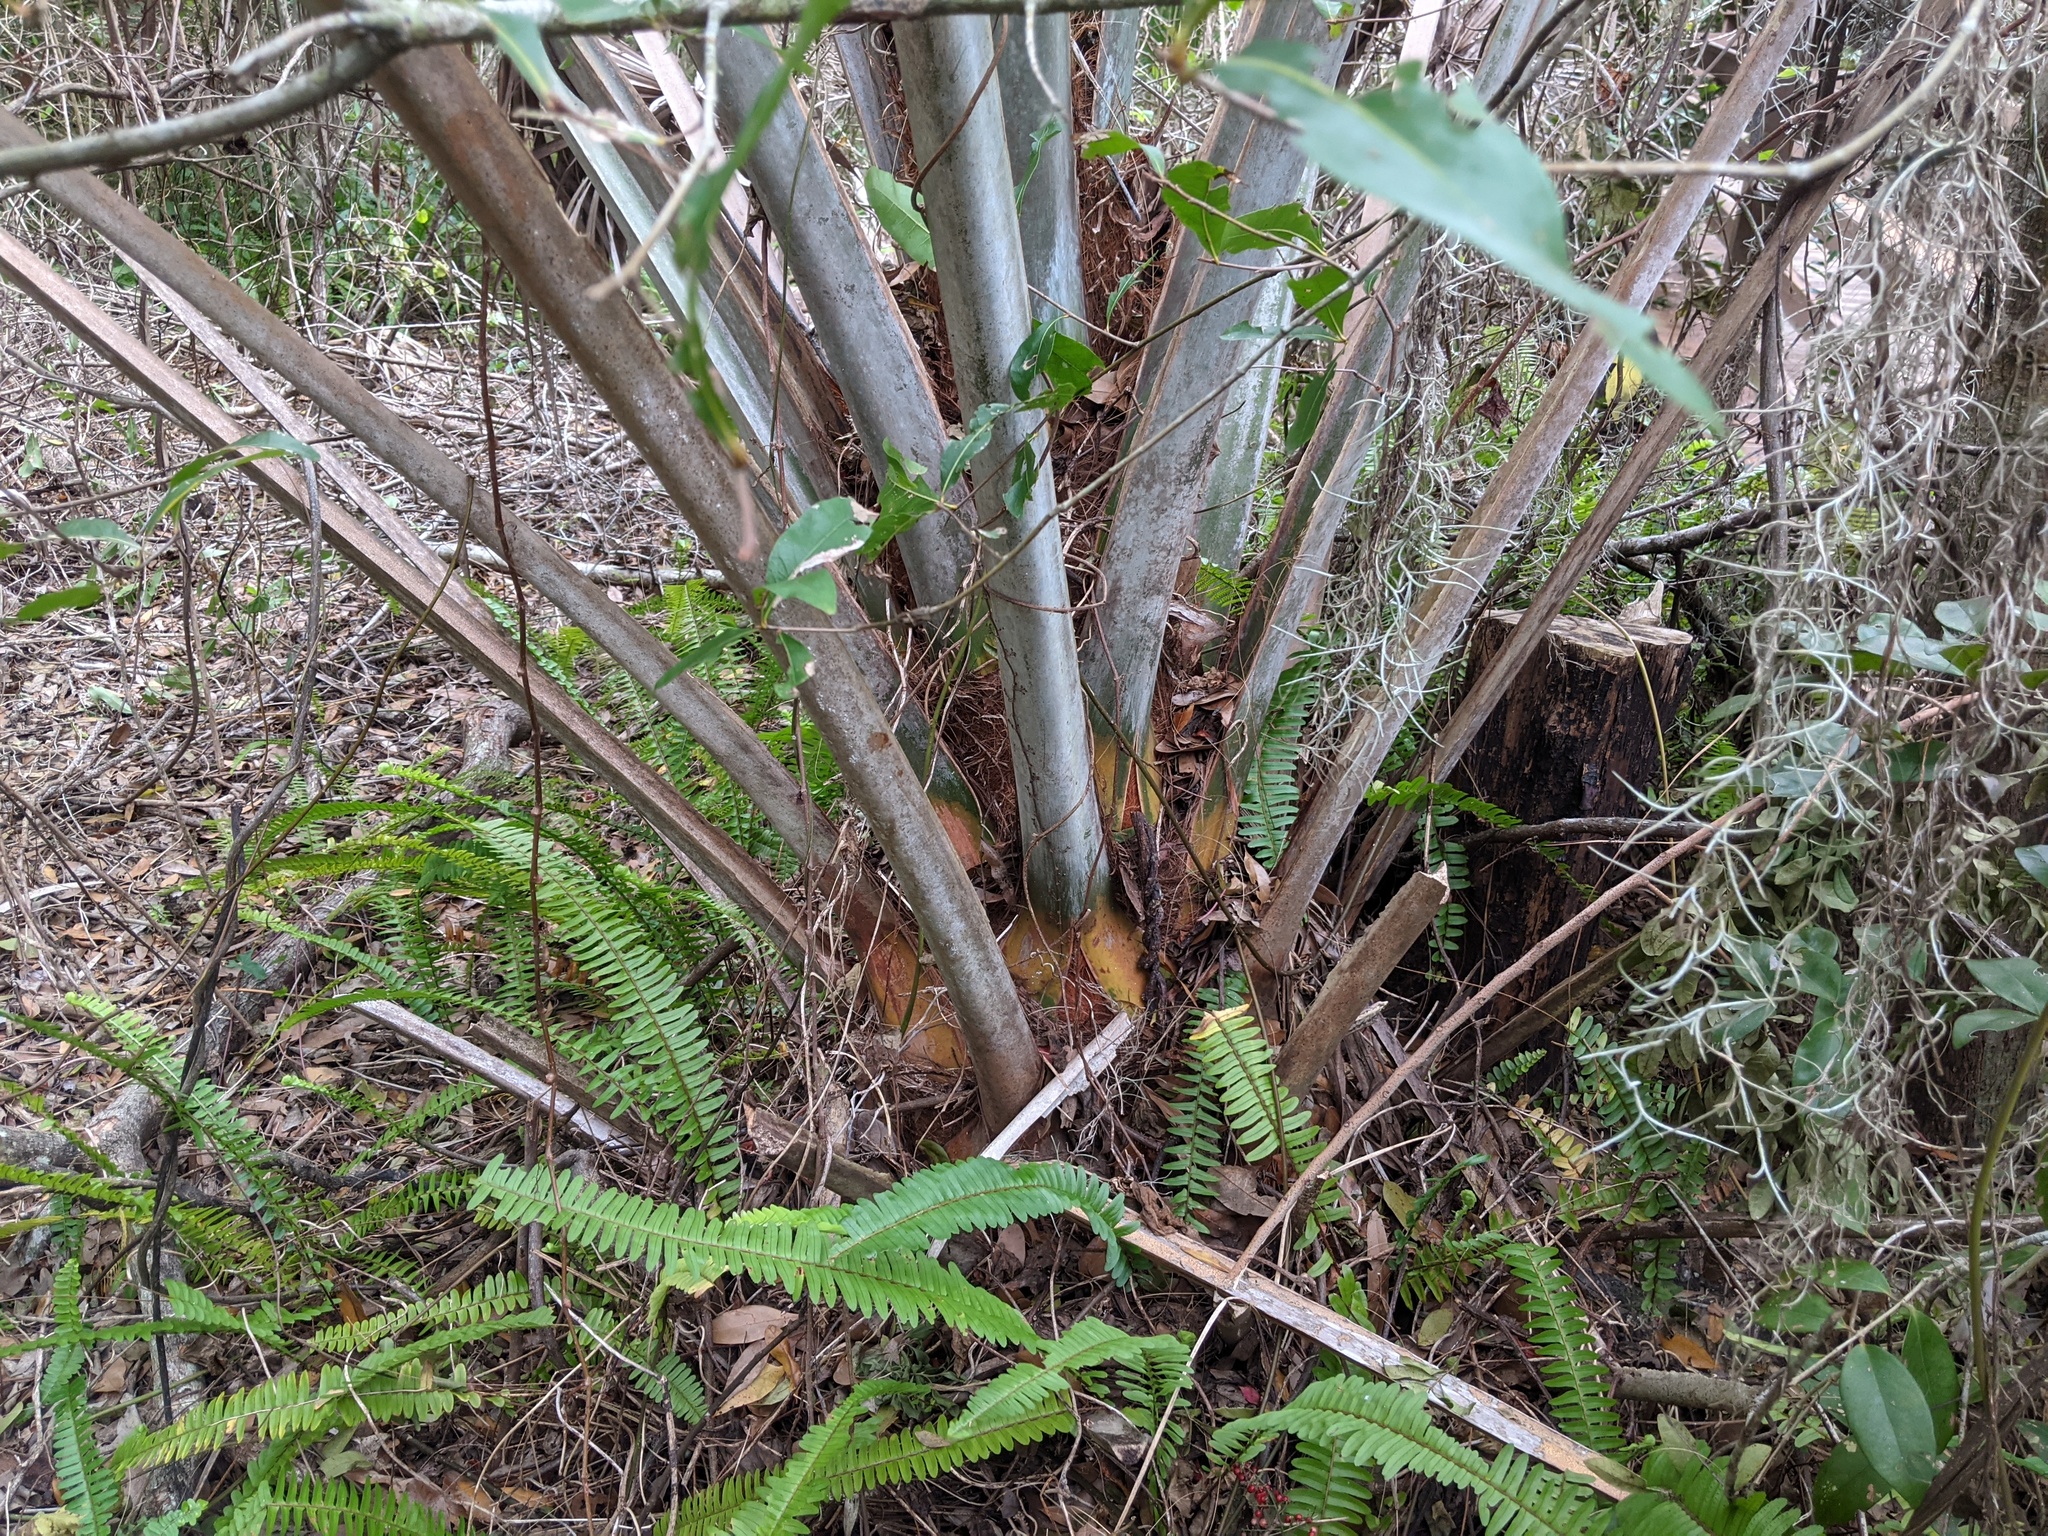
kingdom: Plantae
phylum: Tracheophyta
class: Liliopsida
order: Arecales
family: Arecaceae
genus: Sabal
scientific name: Sabal palmetto
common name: Blue palmetto
